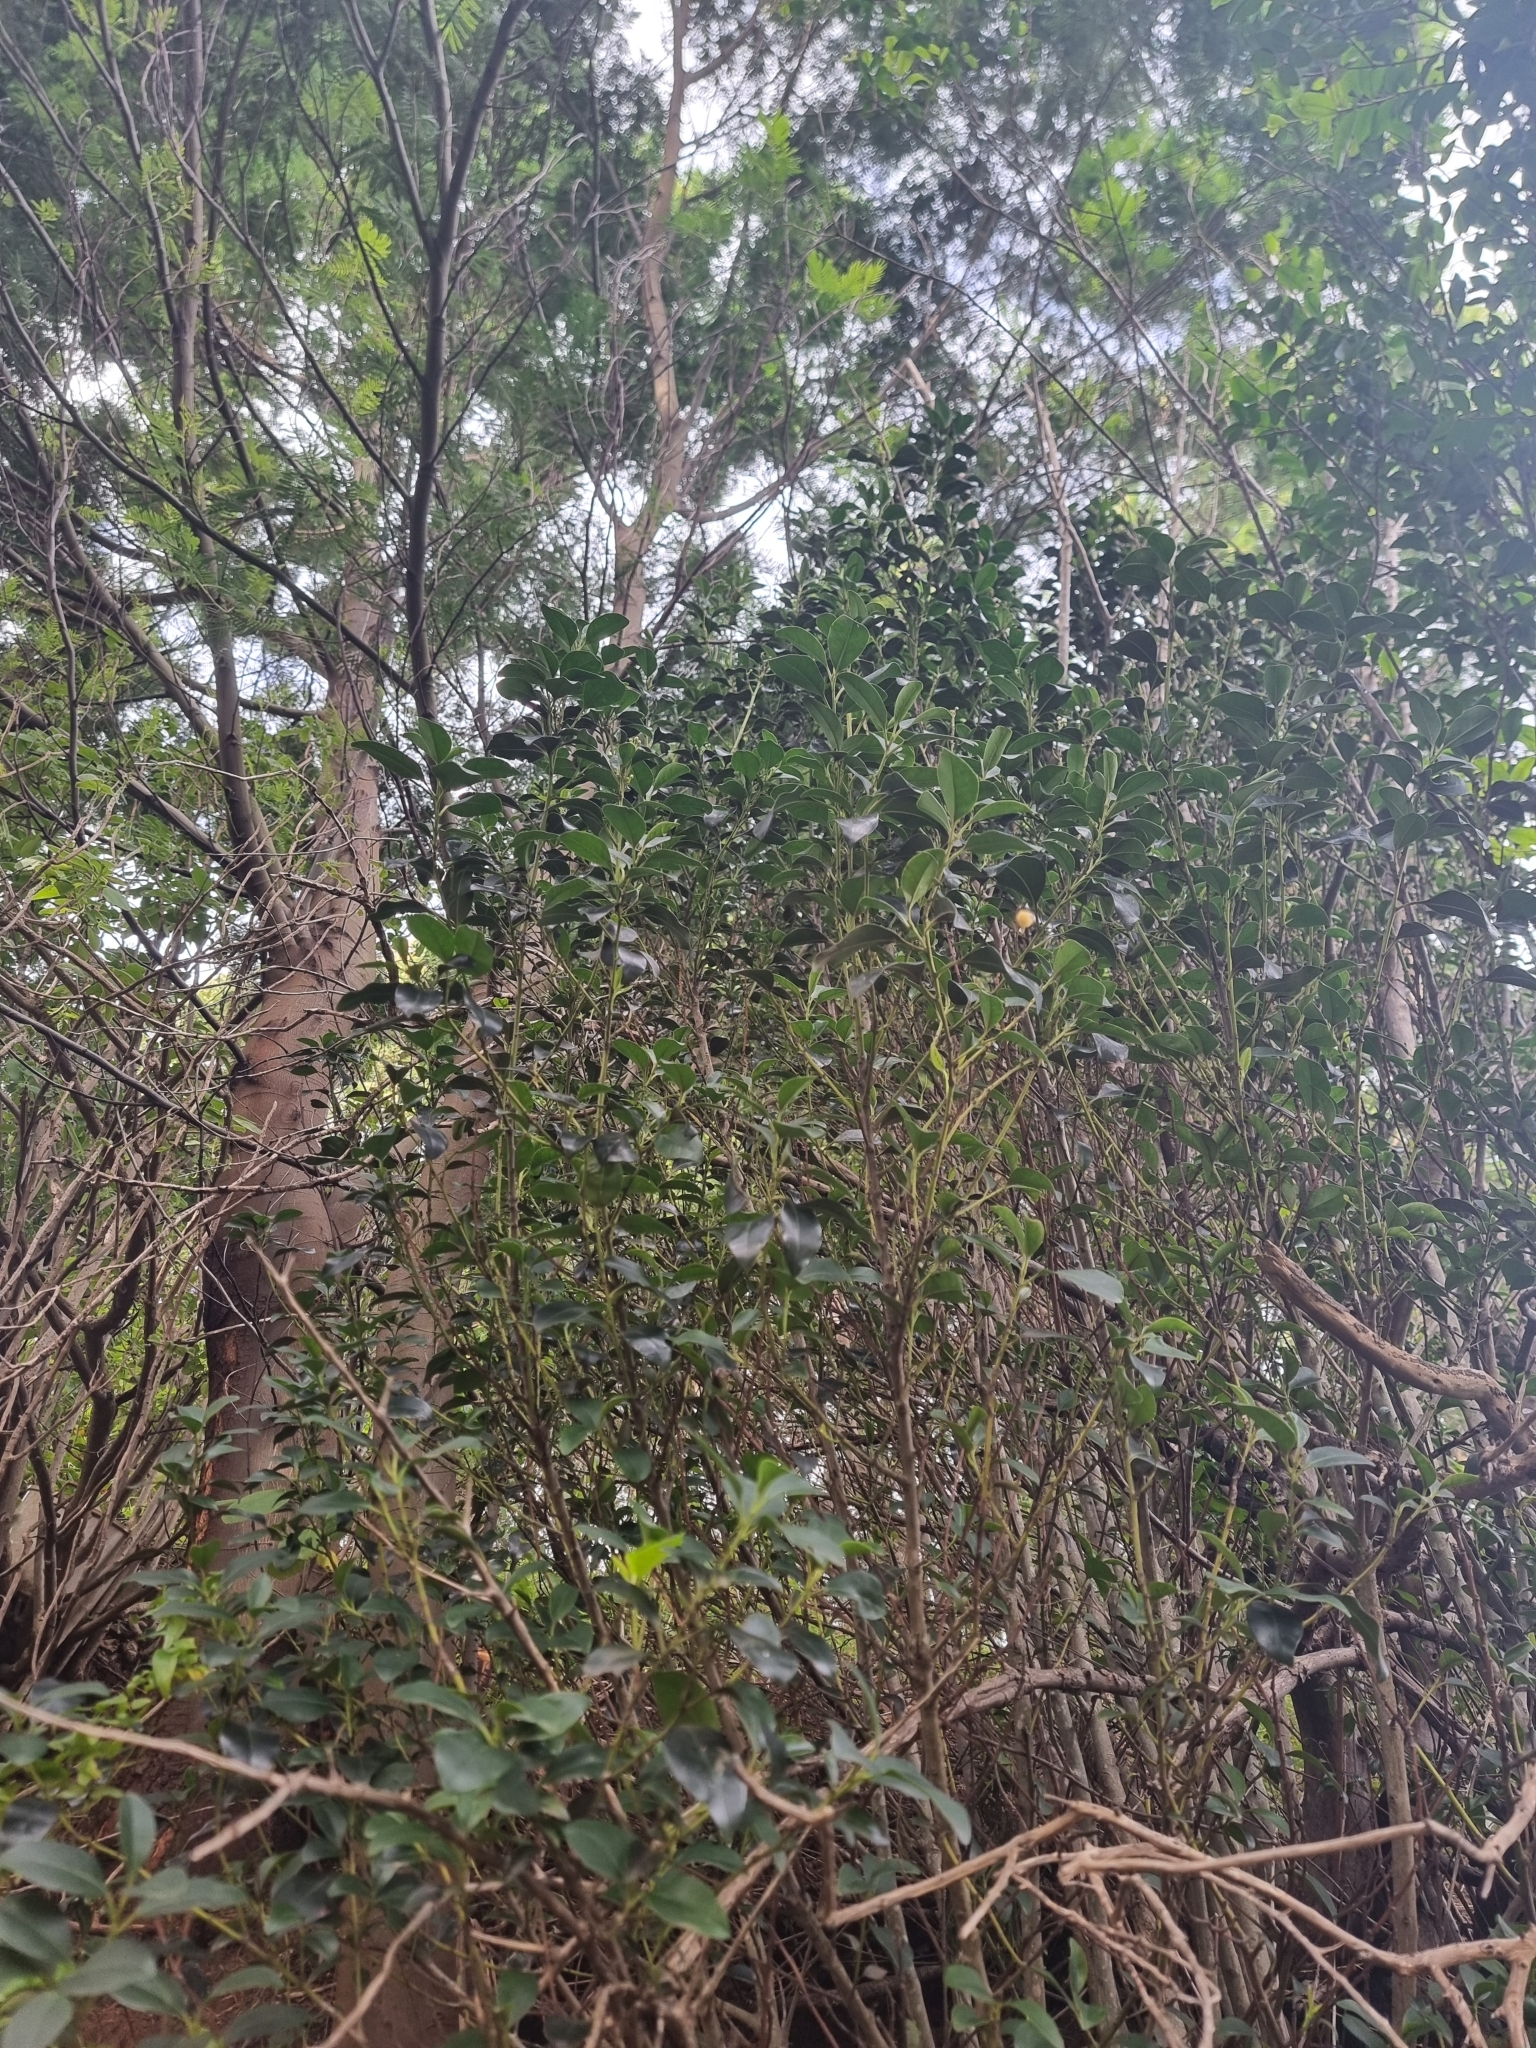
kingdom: Plantae
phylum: Tracheophyta
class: Magnoliopsida
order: Aquifoliales
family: Aquifoliaceae
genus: Ilex
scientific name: Ilex canariensis
